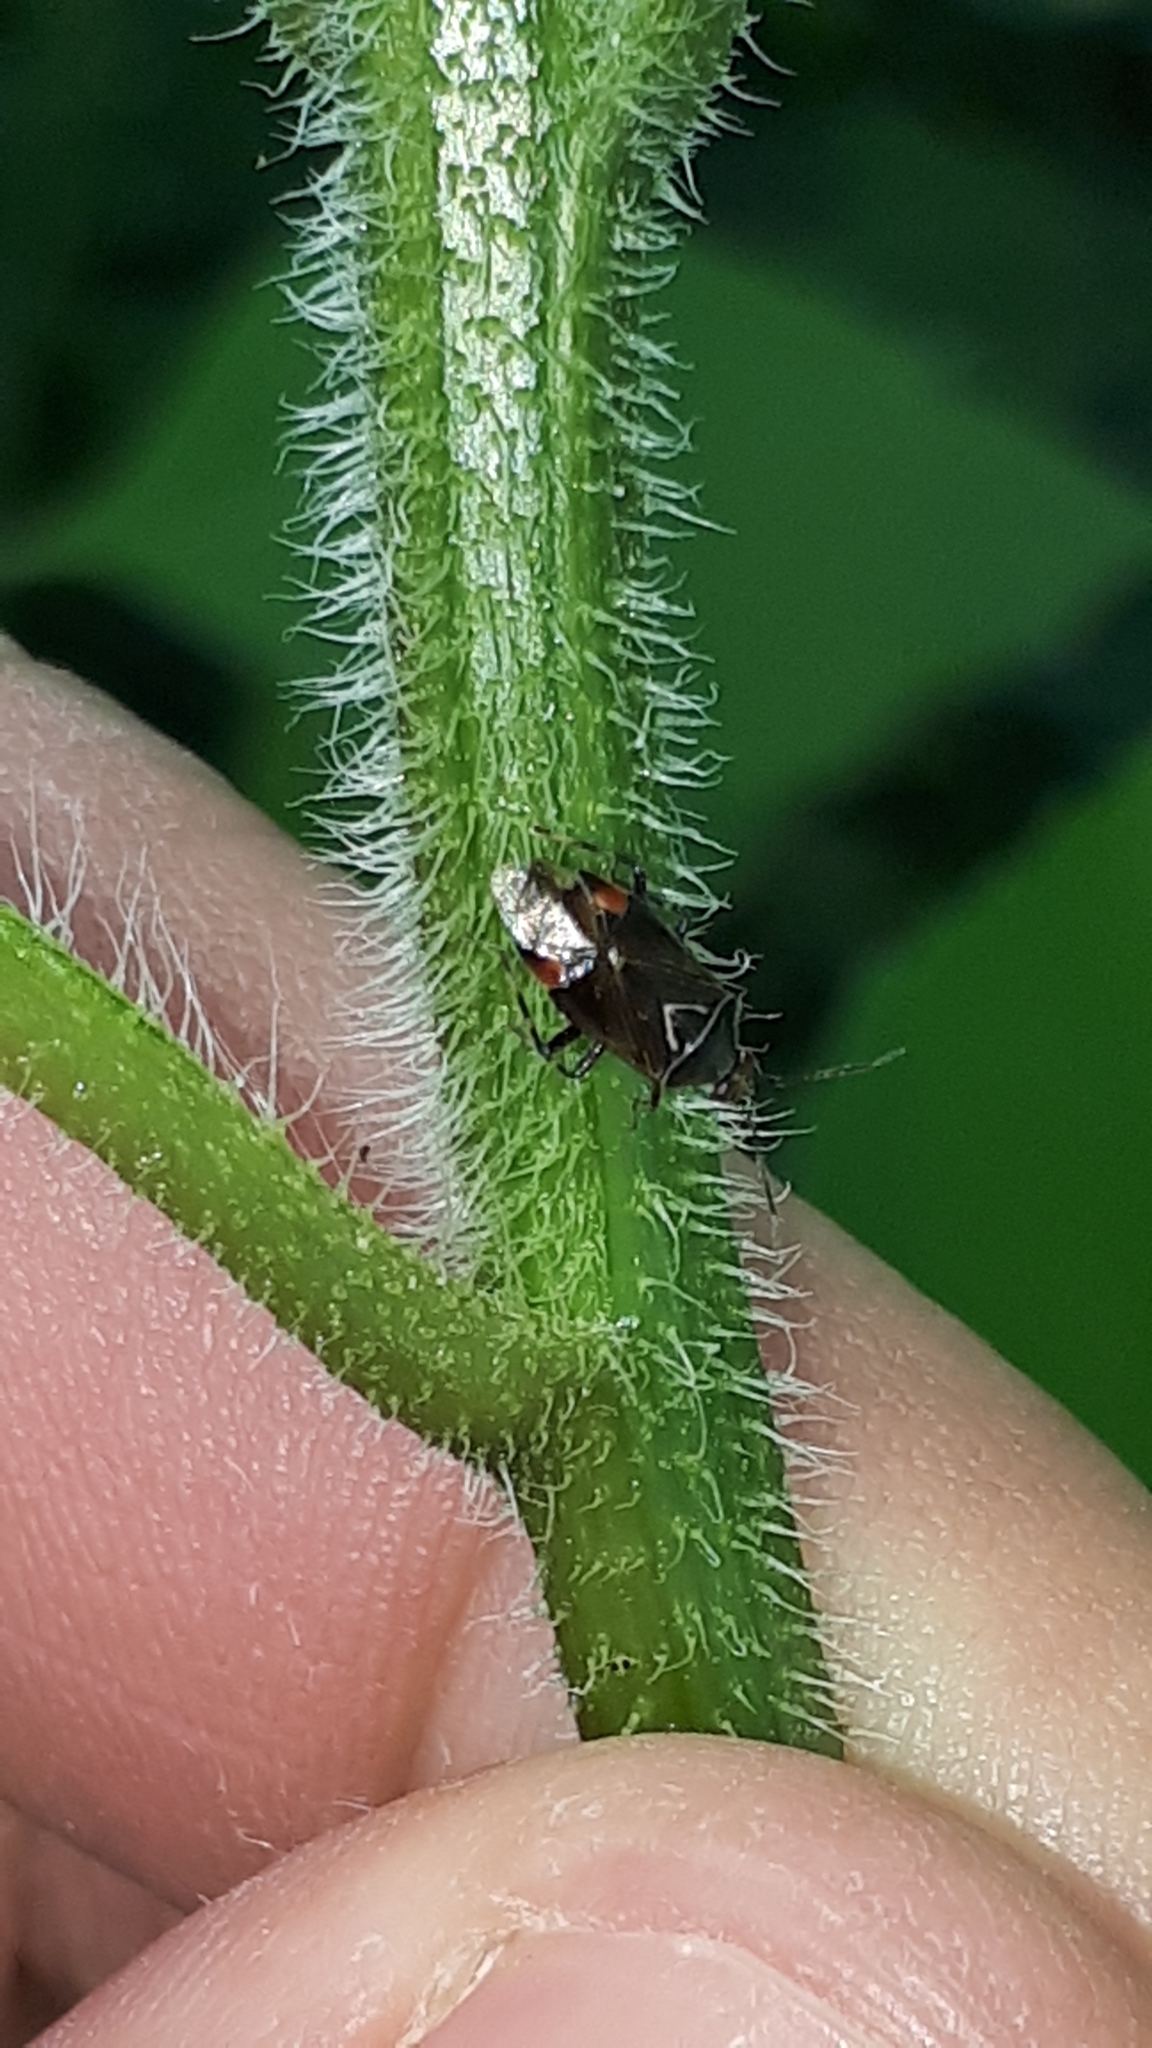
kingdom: Animalia
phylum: Arthropoda
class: Insecta
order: Hemiptera
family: Miridae
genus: Deraeocoris
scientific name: Deraeocoris flavilinea
